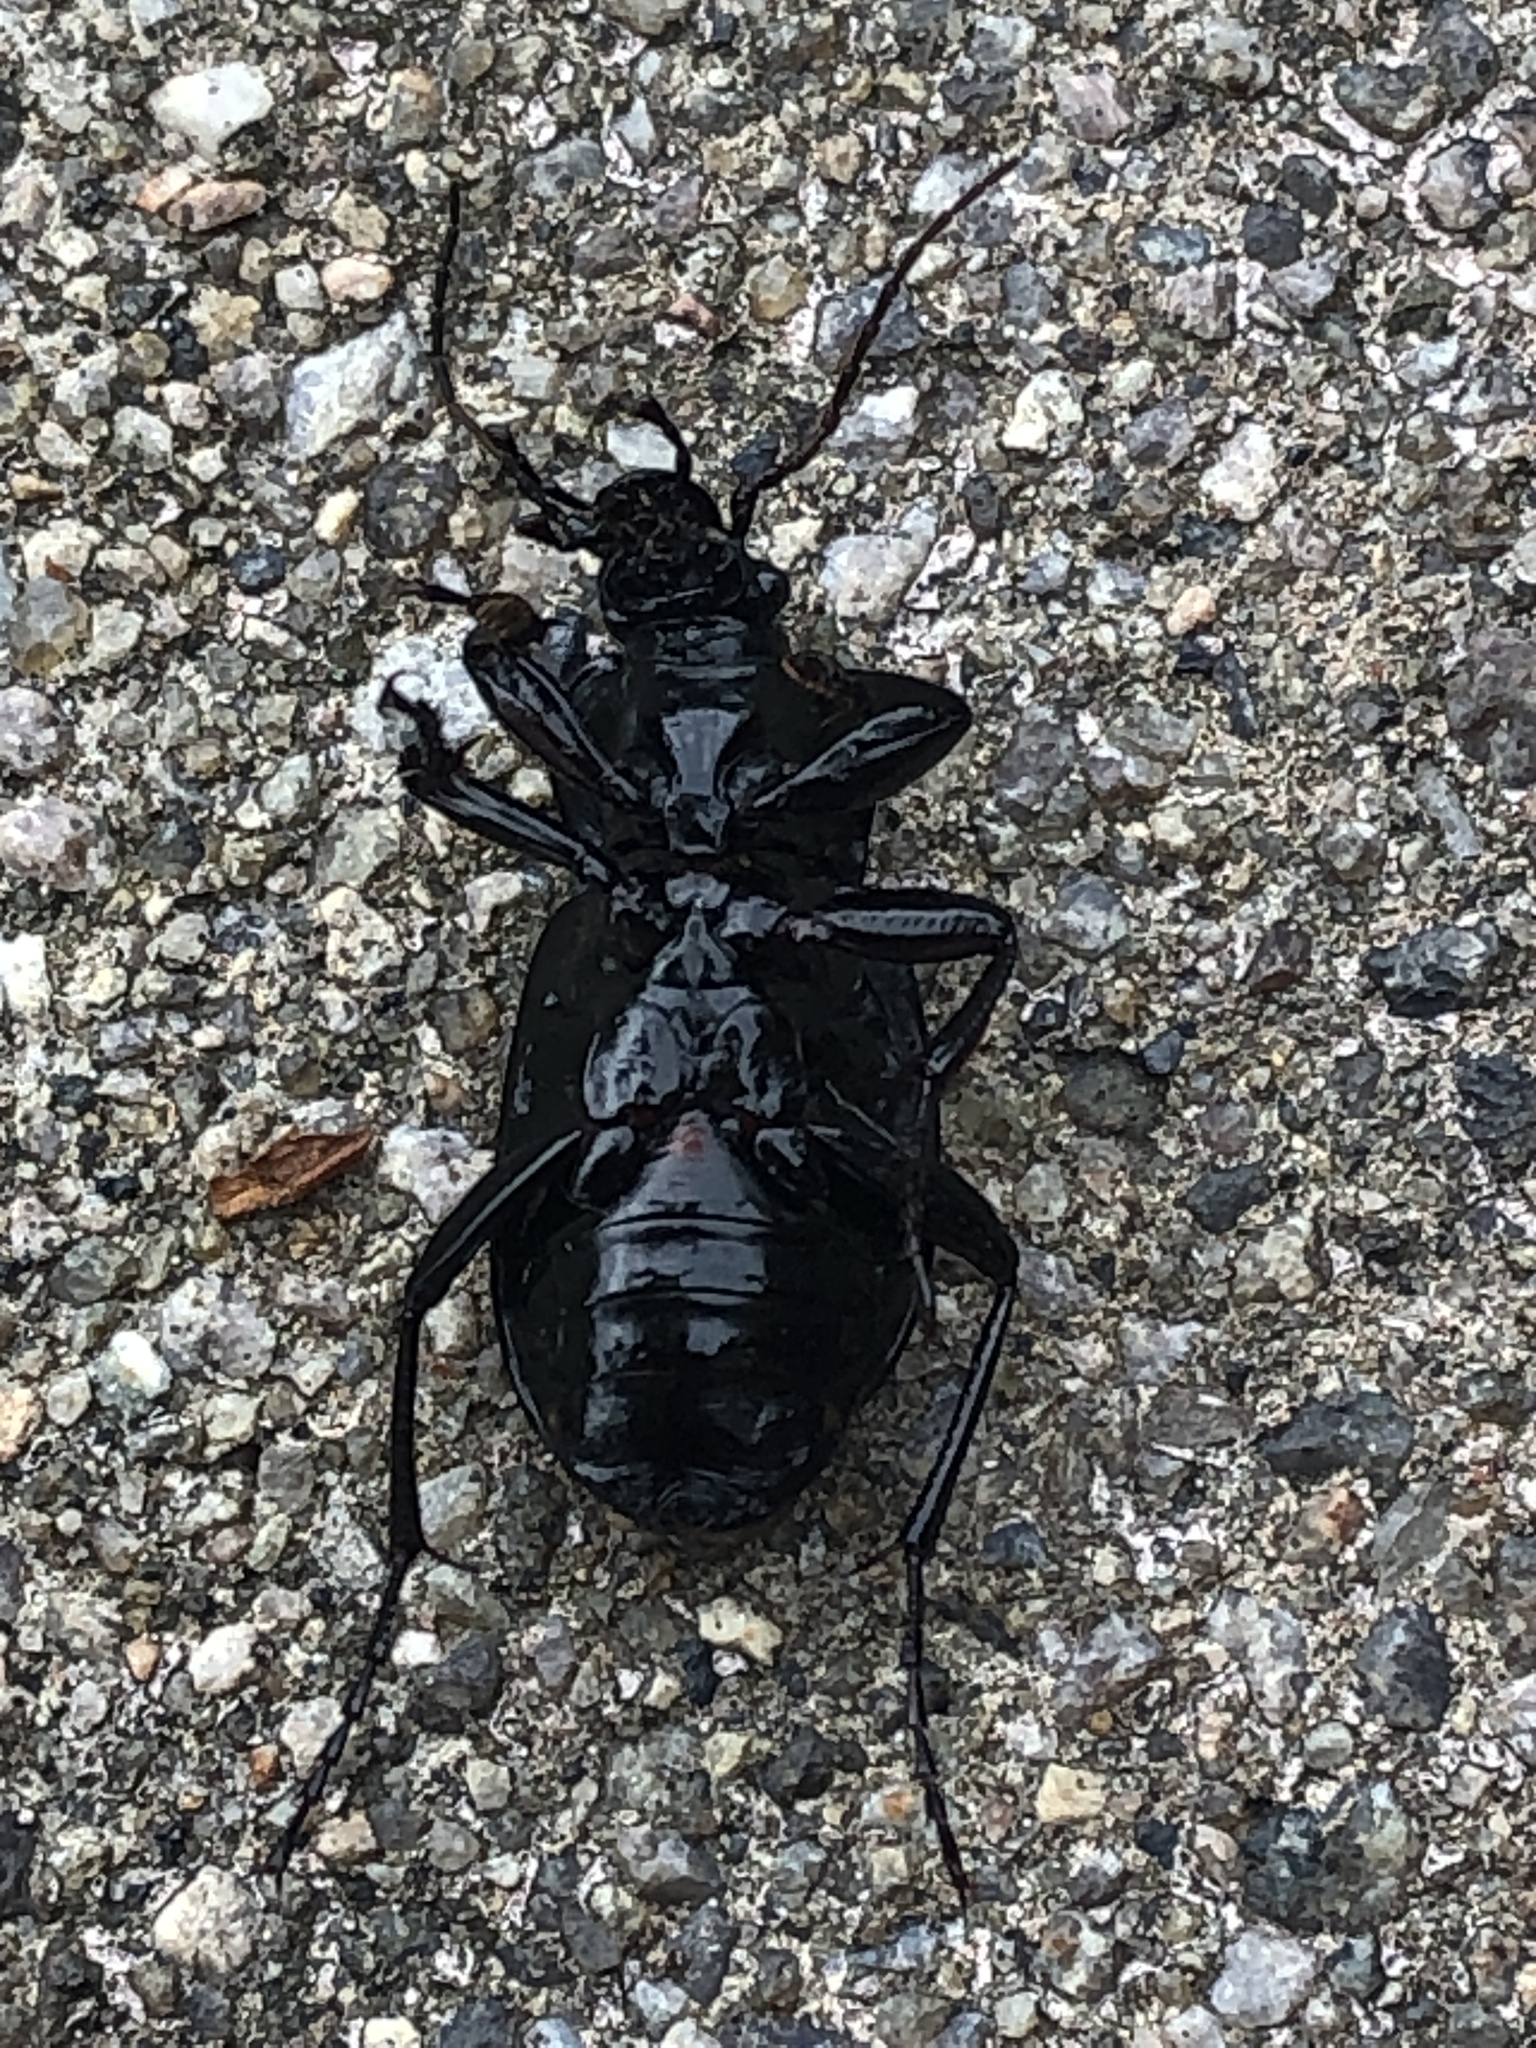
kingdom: Animalia
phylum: Arthropoda
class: Insecta
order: Coleoptera
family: Carabidae
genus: Carabus
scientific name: Carabus nemoralis
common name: European ground beetle
